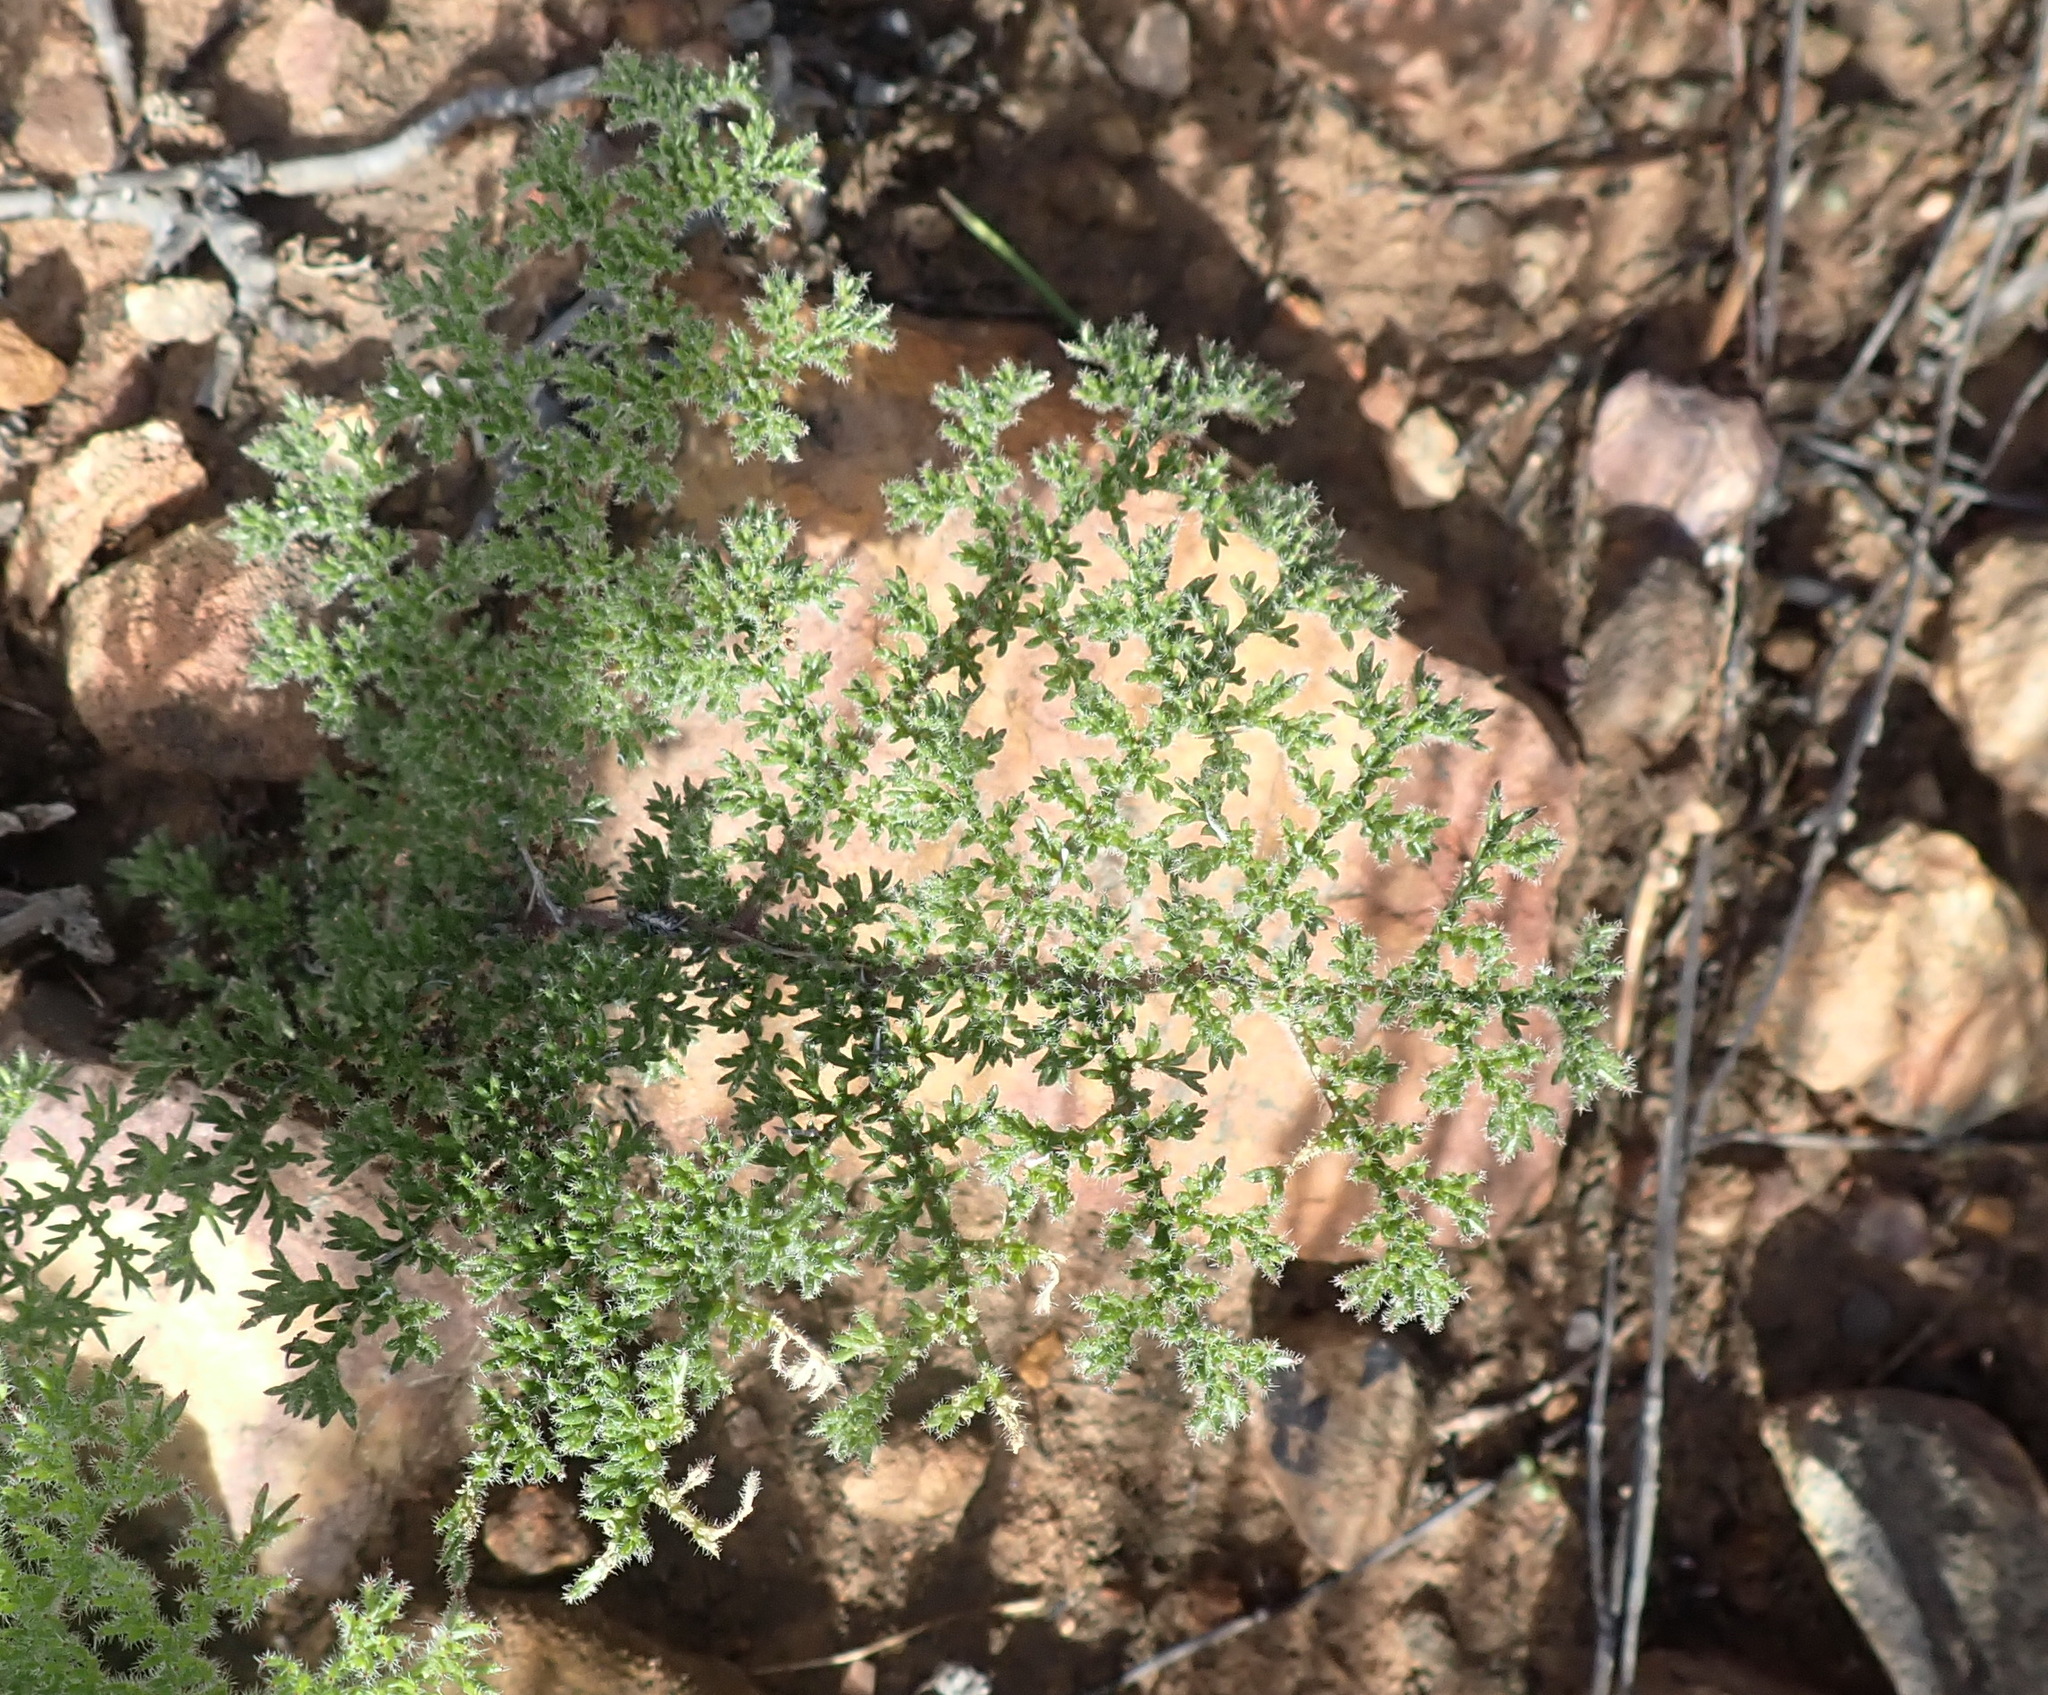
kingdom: Plantae
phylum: Tracheophyta
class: Magnoliopsida
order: Geraniales
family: Geraniaceae
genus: Pelargonium
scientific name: Pelargonium triste
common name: Night-scent pelargonium
